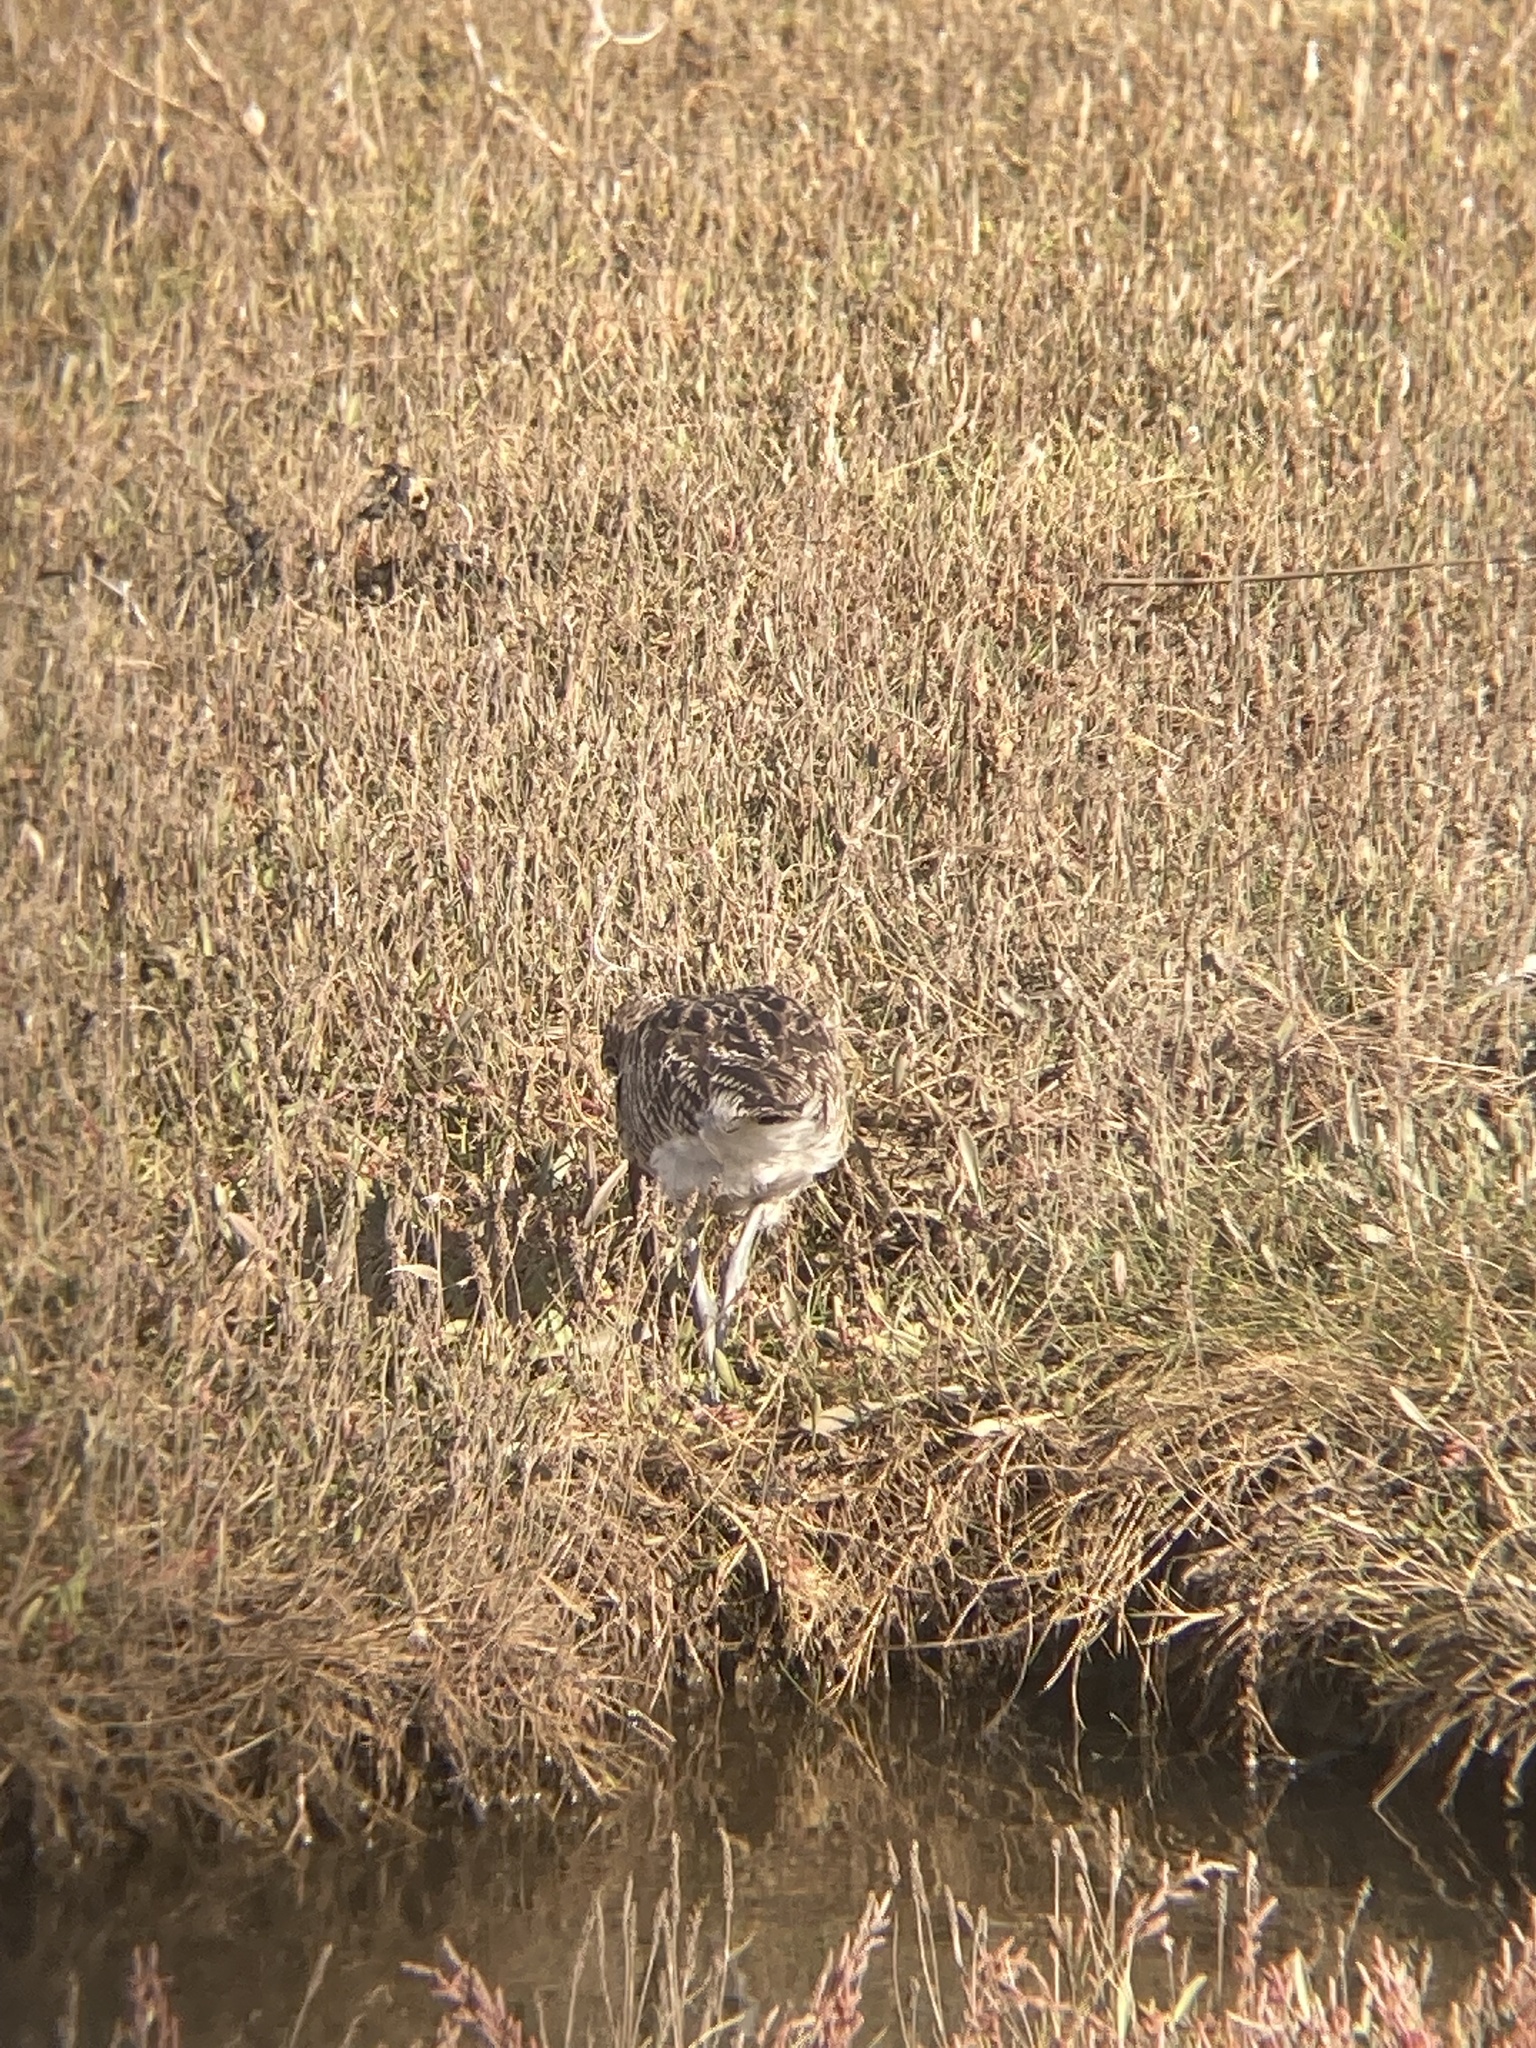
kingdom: Animalia
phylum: Chordata
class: Aves
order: Charadriiformes
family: Scolopacidae
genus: Numenius
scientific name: Numenius phaeopus
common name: Whimbrel
